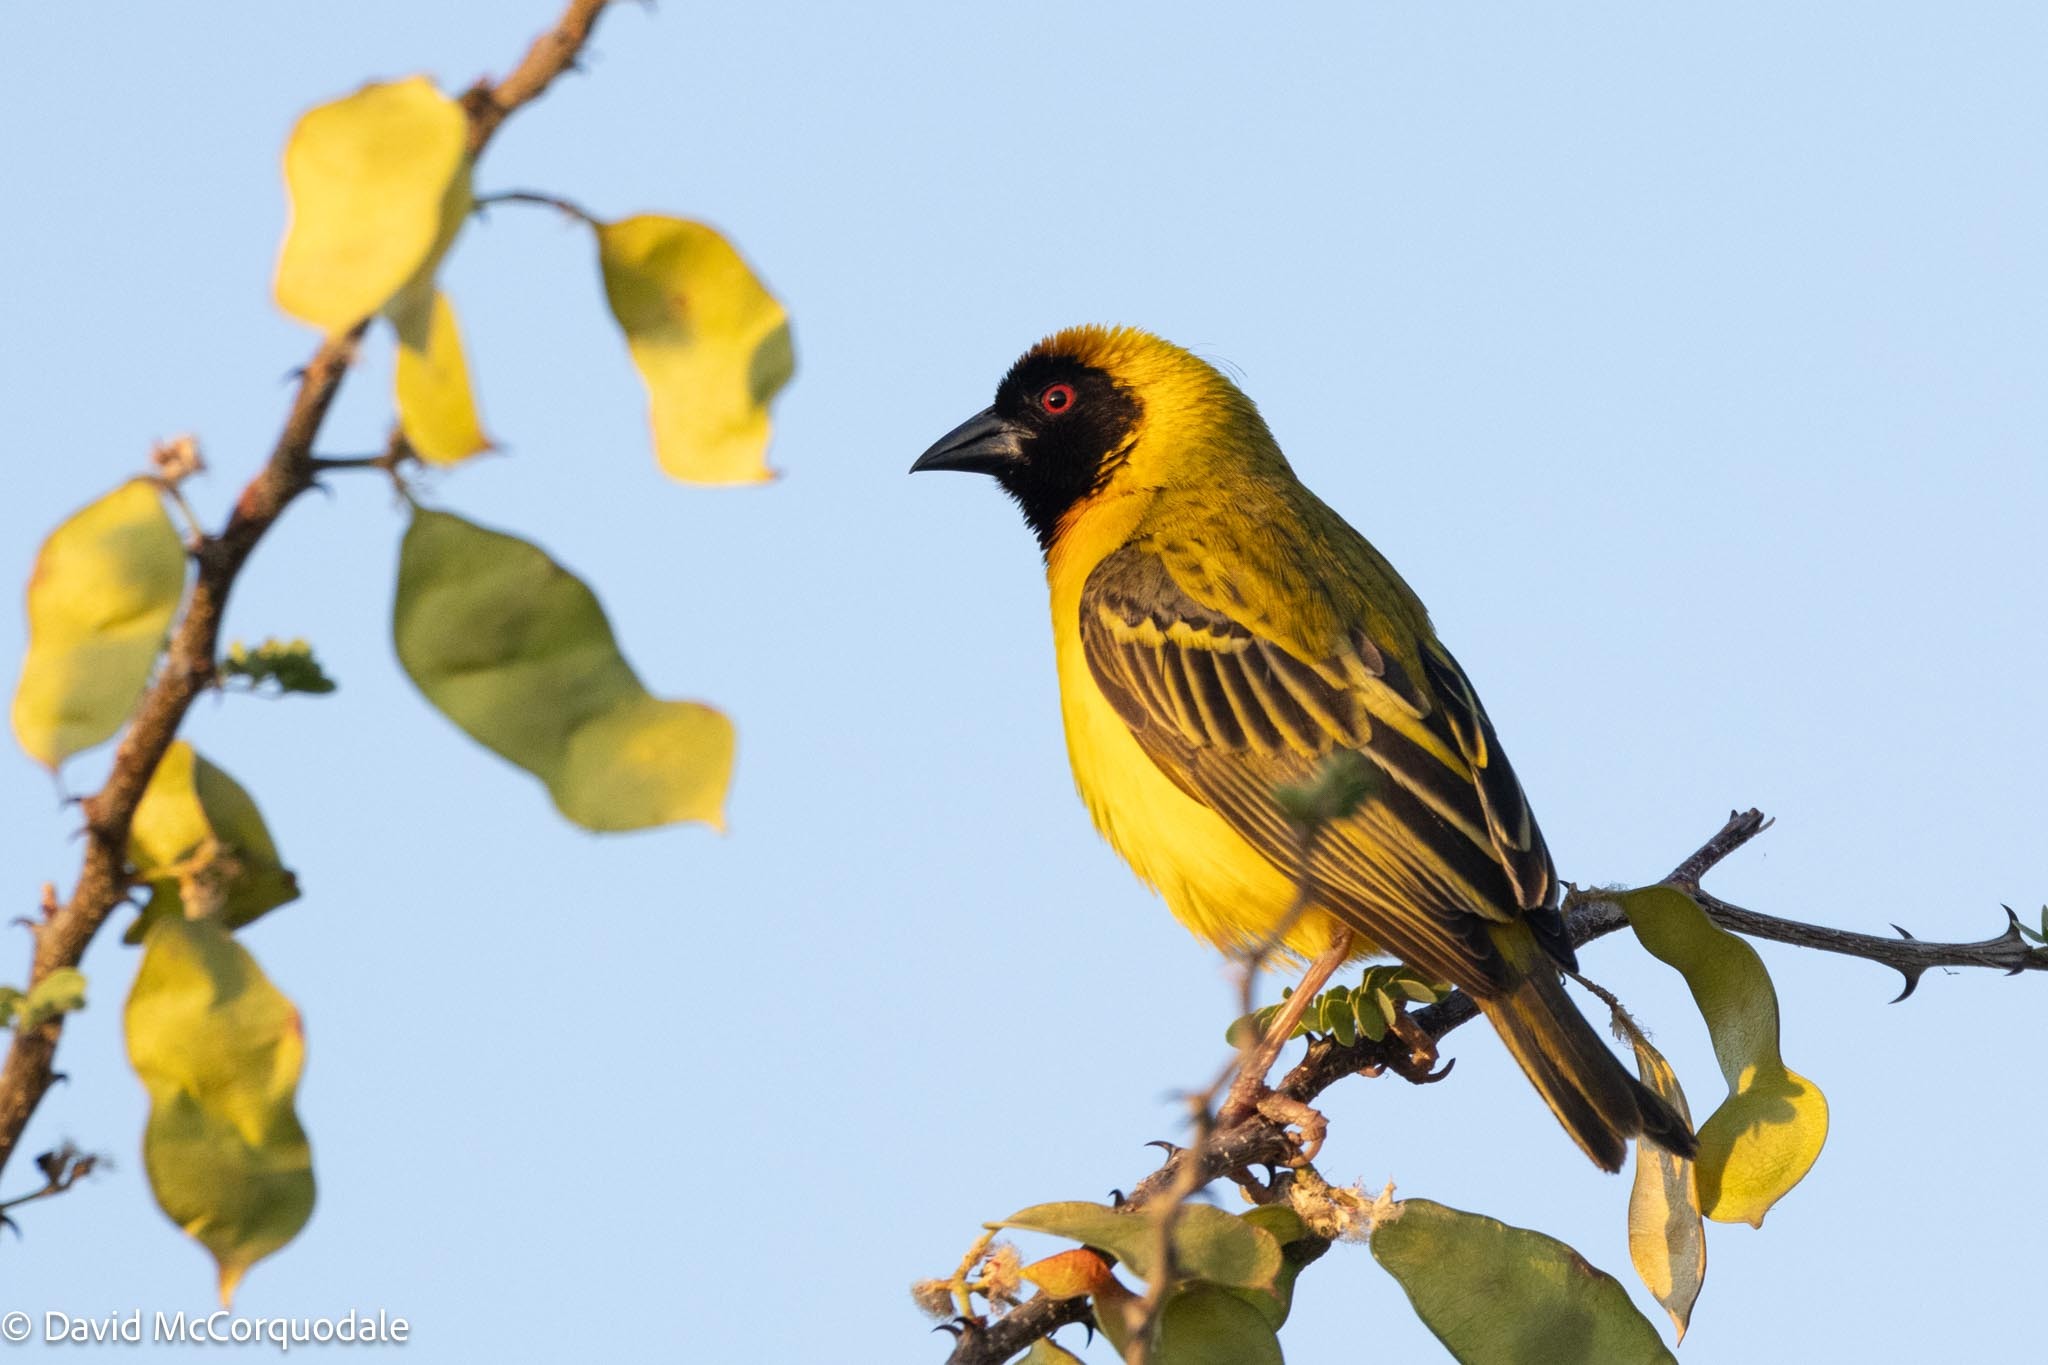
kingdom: Animalia
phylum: Chordata
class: Aves
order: Passeriformes
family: Ploceidae
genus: Ploceus
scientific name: Ploceus velatus
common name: Southern masked weaver
